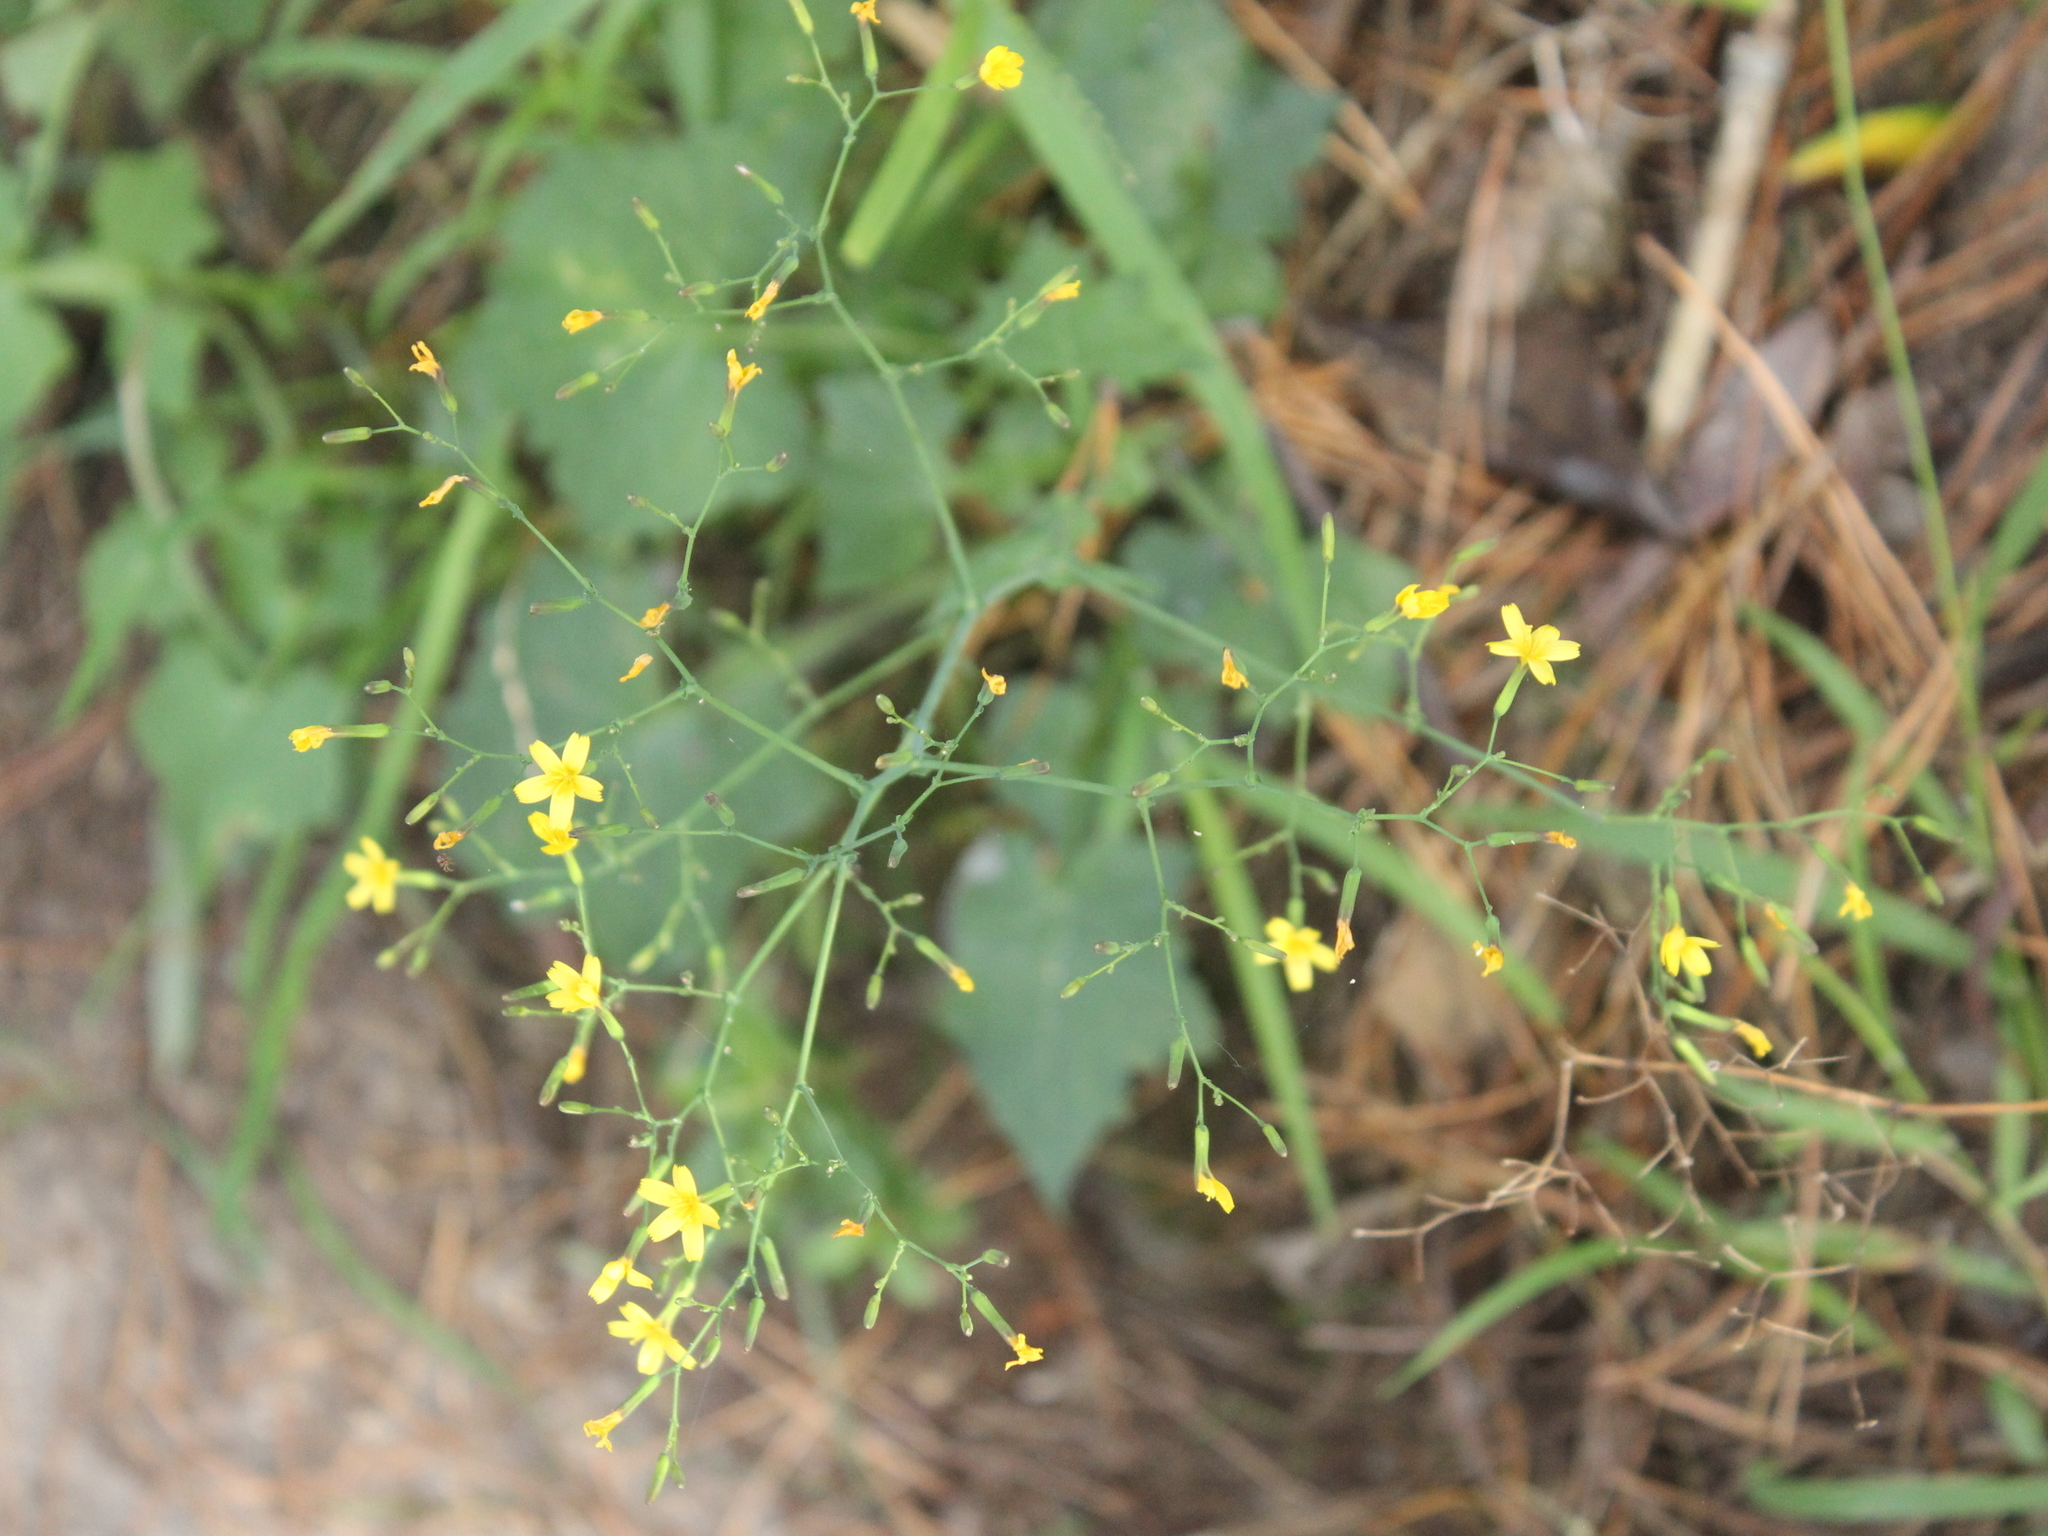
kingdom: Plantae
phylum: Tracheophyta
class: Magnoliopsida
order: Asterales
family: Asteraceae
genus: Mycelis
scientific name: Mycelis muralis
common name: Wall lettuce
